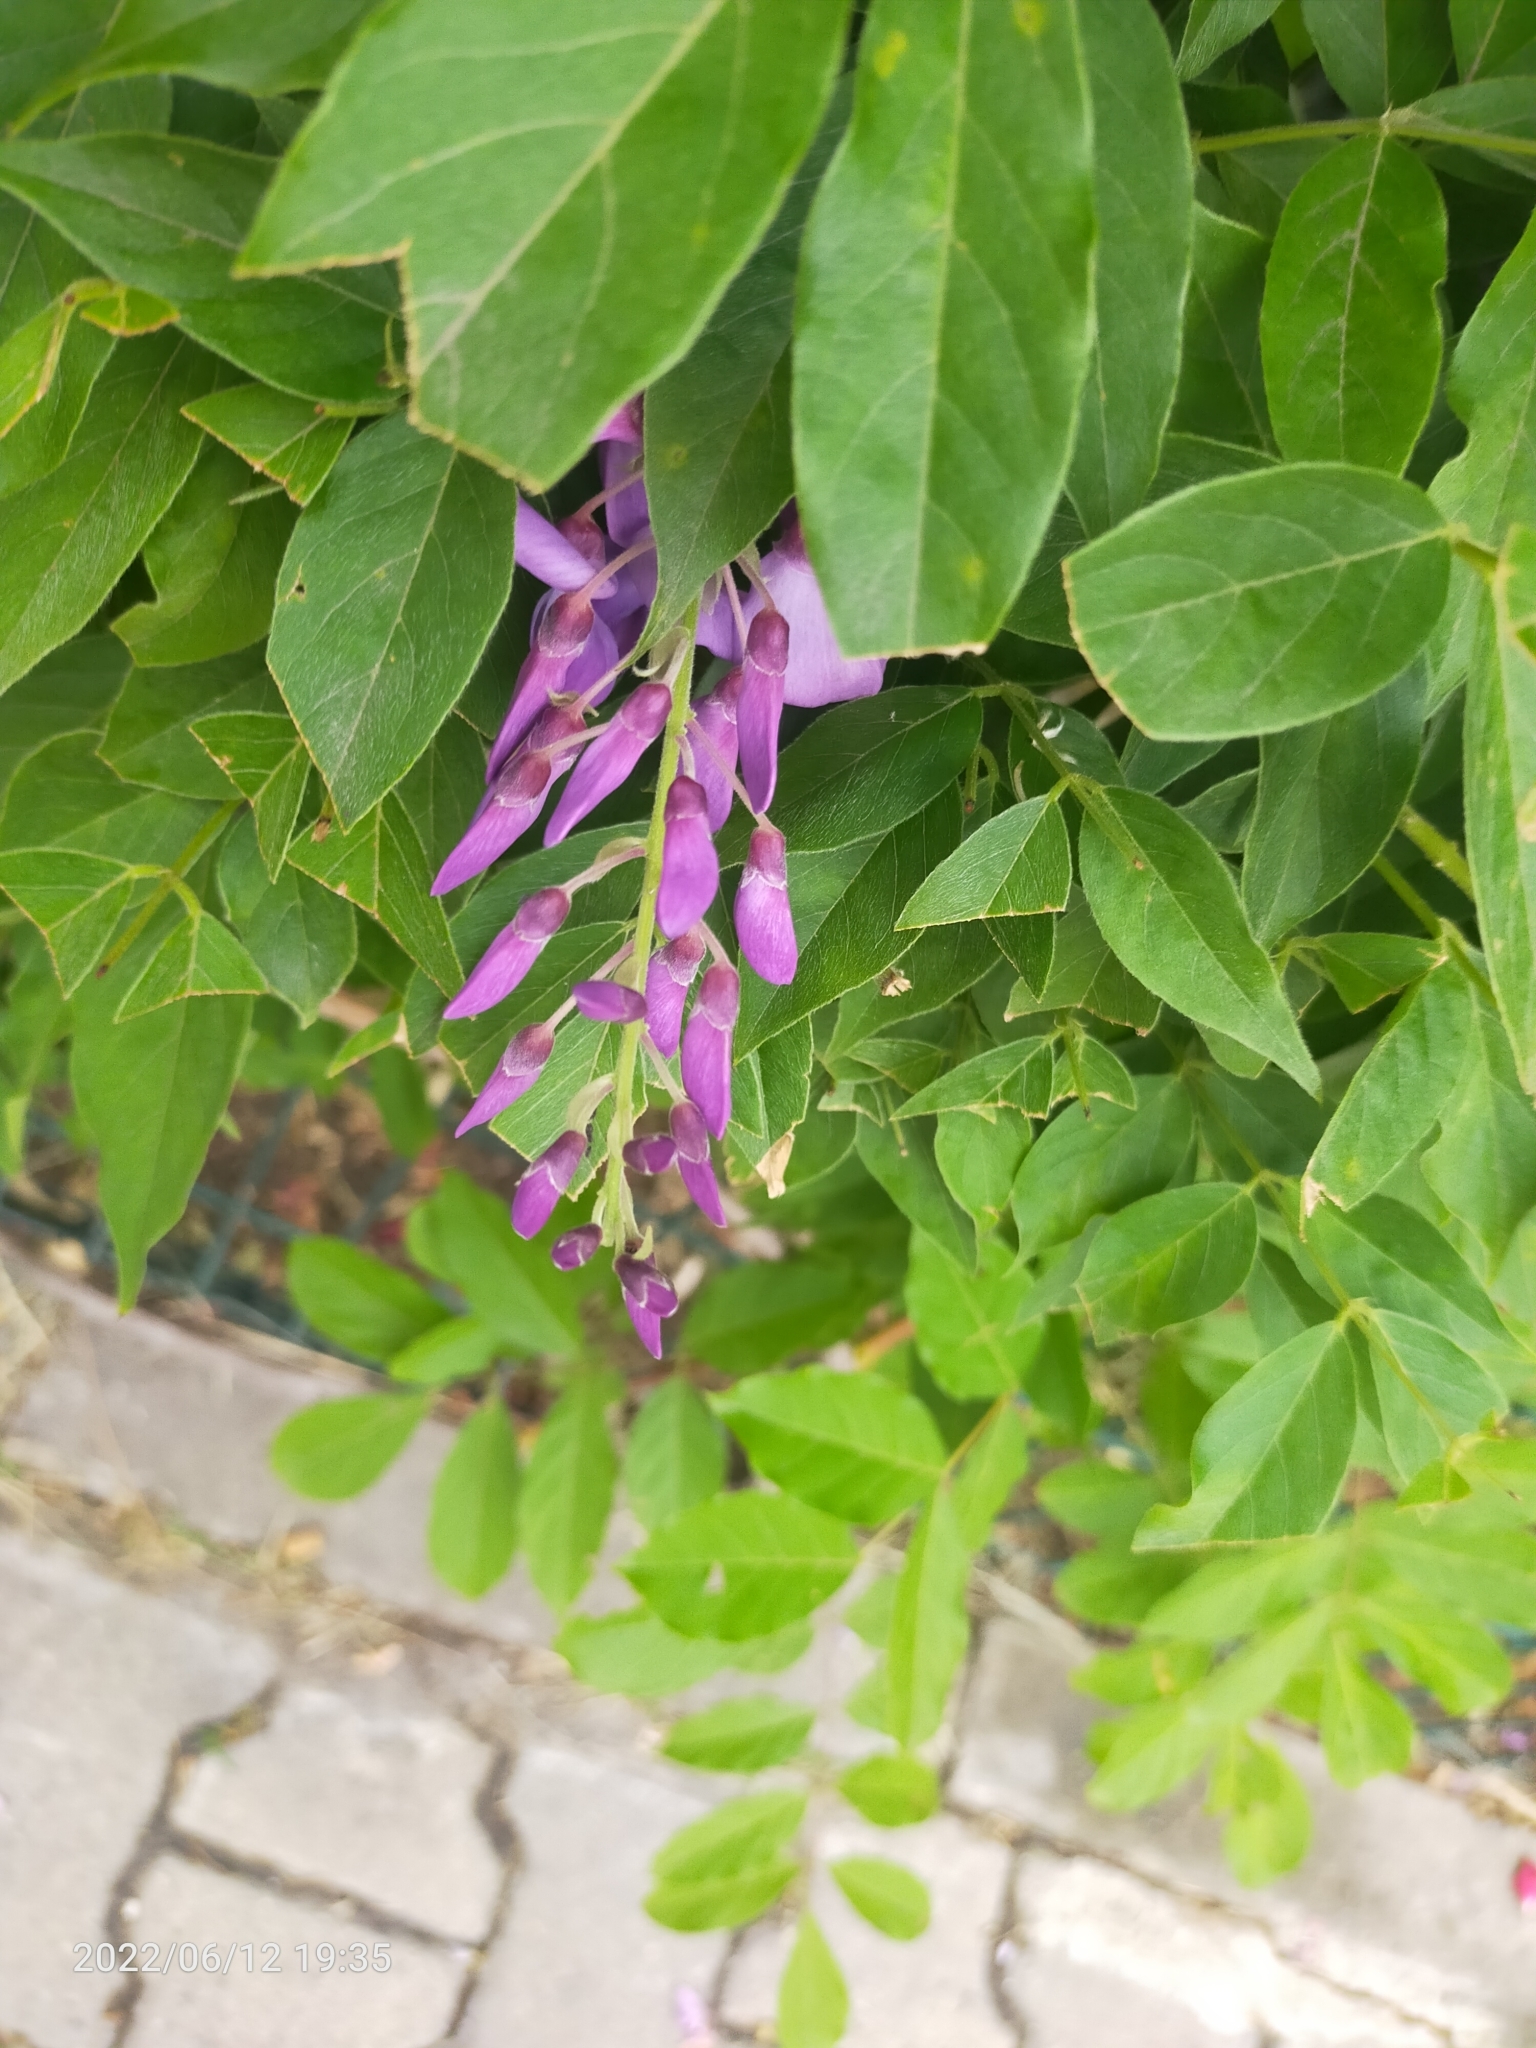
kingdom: Plantae
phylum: Tracheophyta
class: Magnoliopsida
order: Fabales
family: Fabaceae
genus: Wisteria
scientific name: Wisteria sinensis
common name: Chinese wisteria
